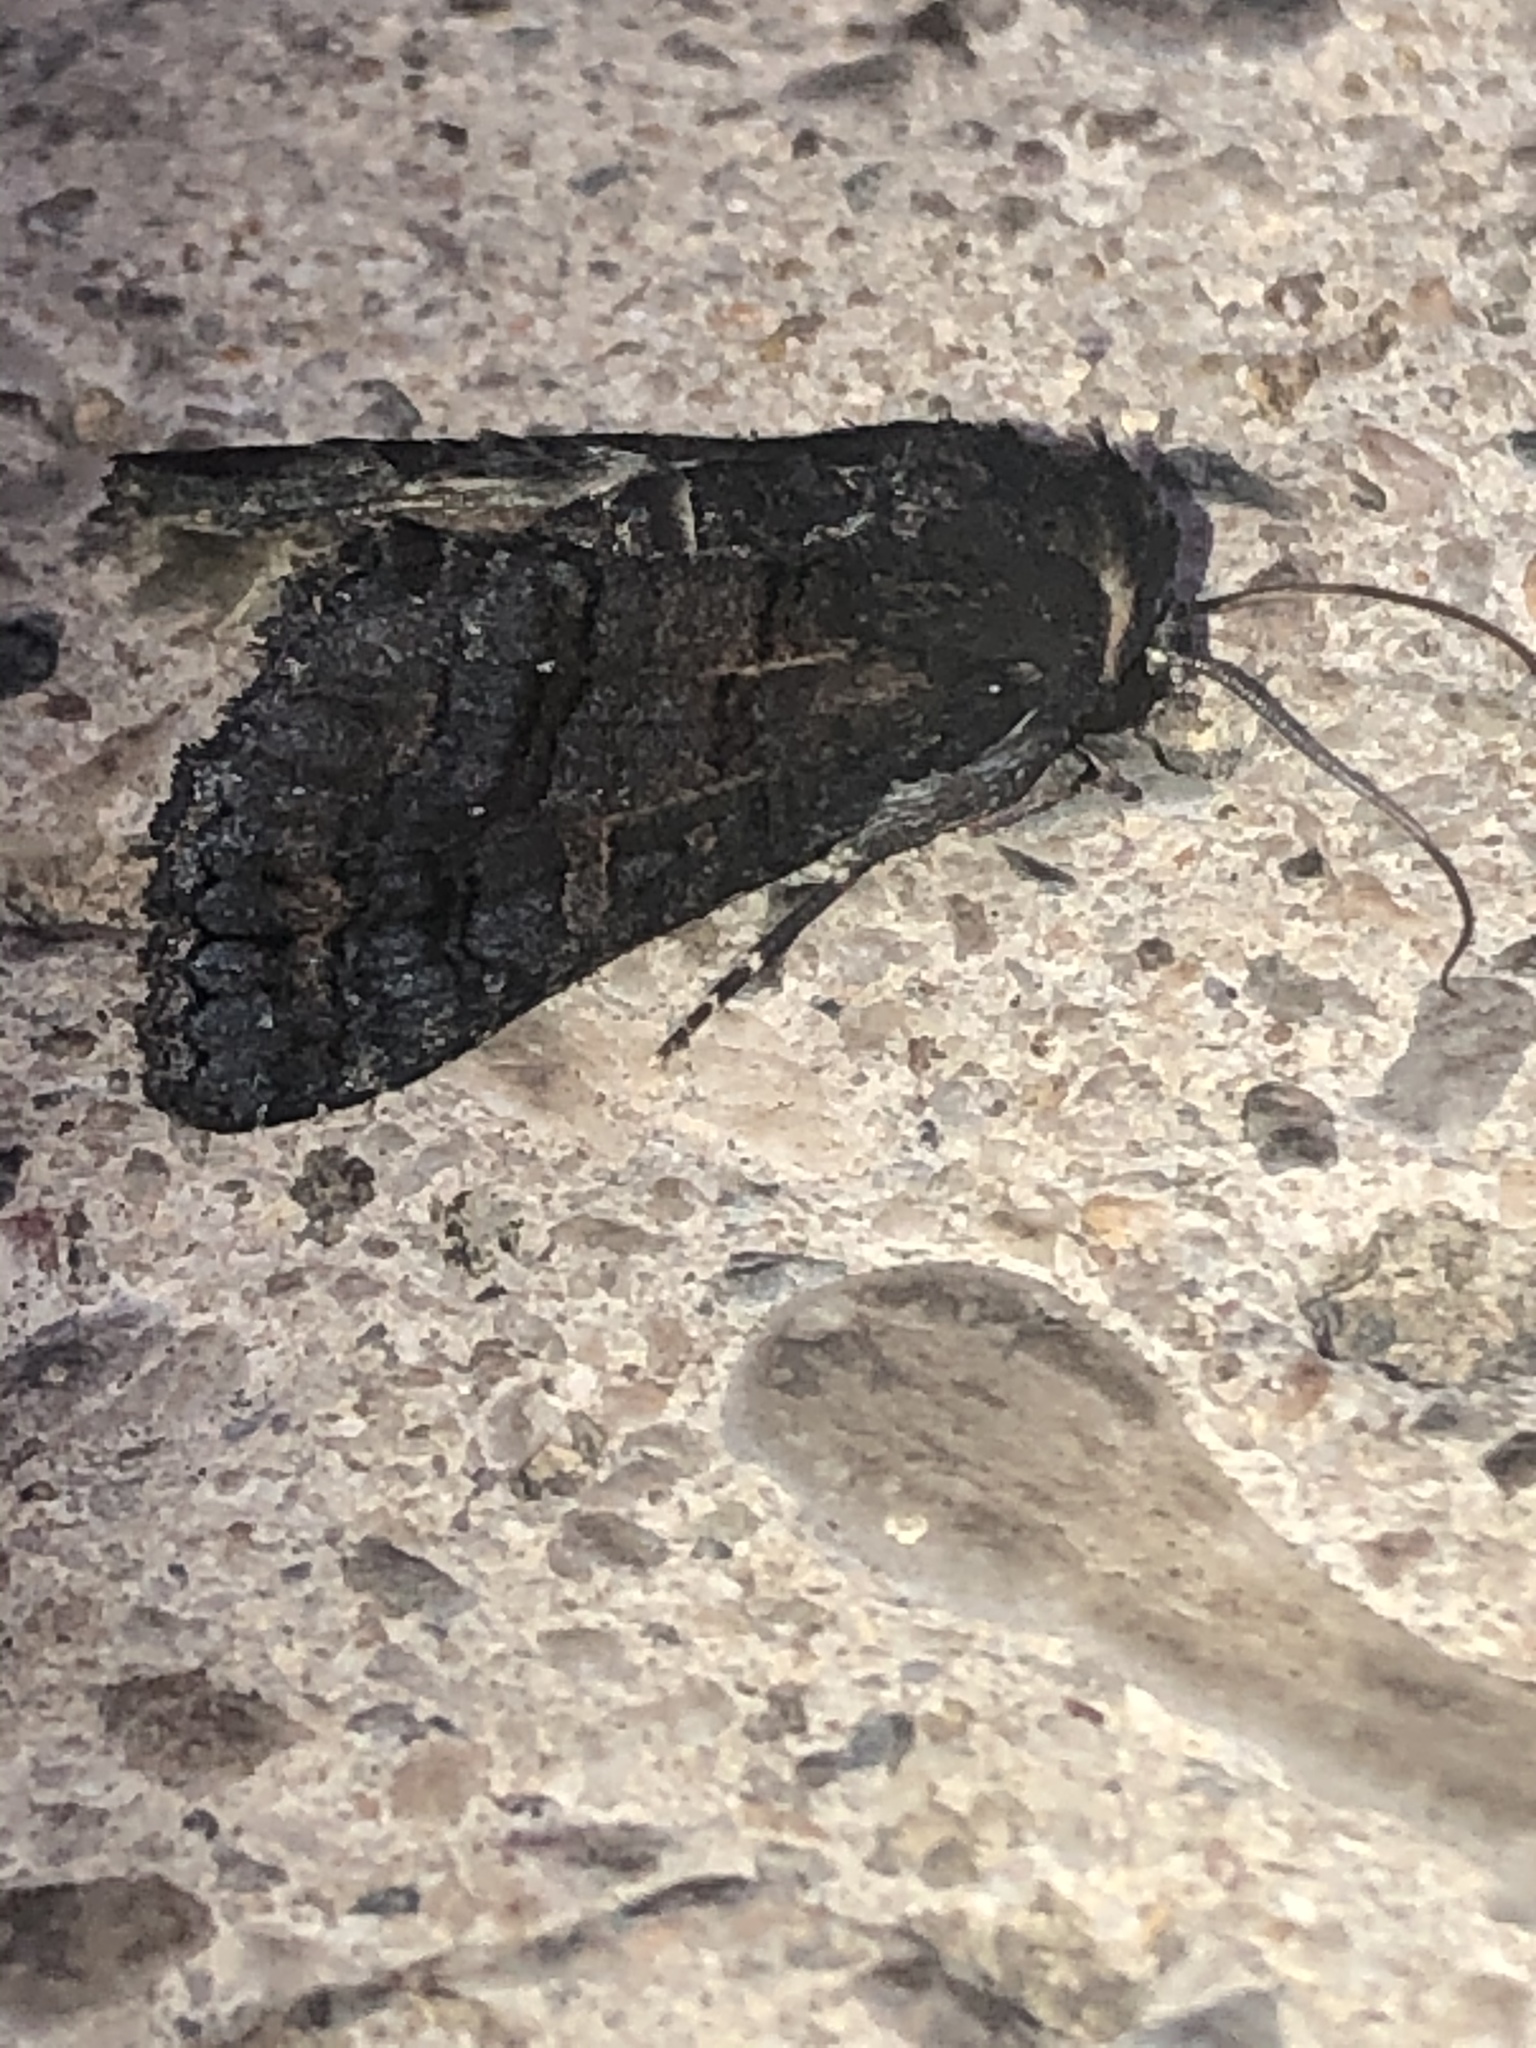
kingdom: Animalia
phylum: Arthropoda
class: Insecta
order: Lepidoptera
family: Euteliidae
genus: Pataeta
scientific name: Pataeta carbo
